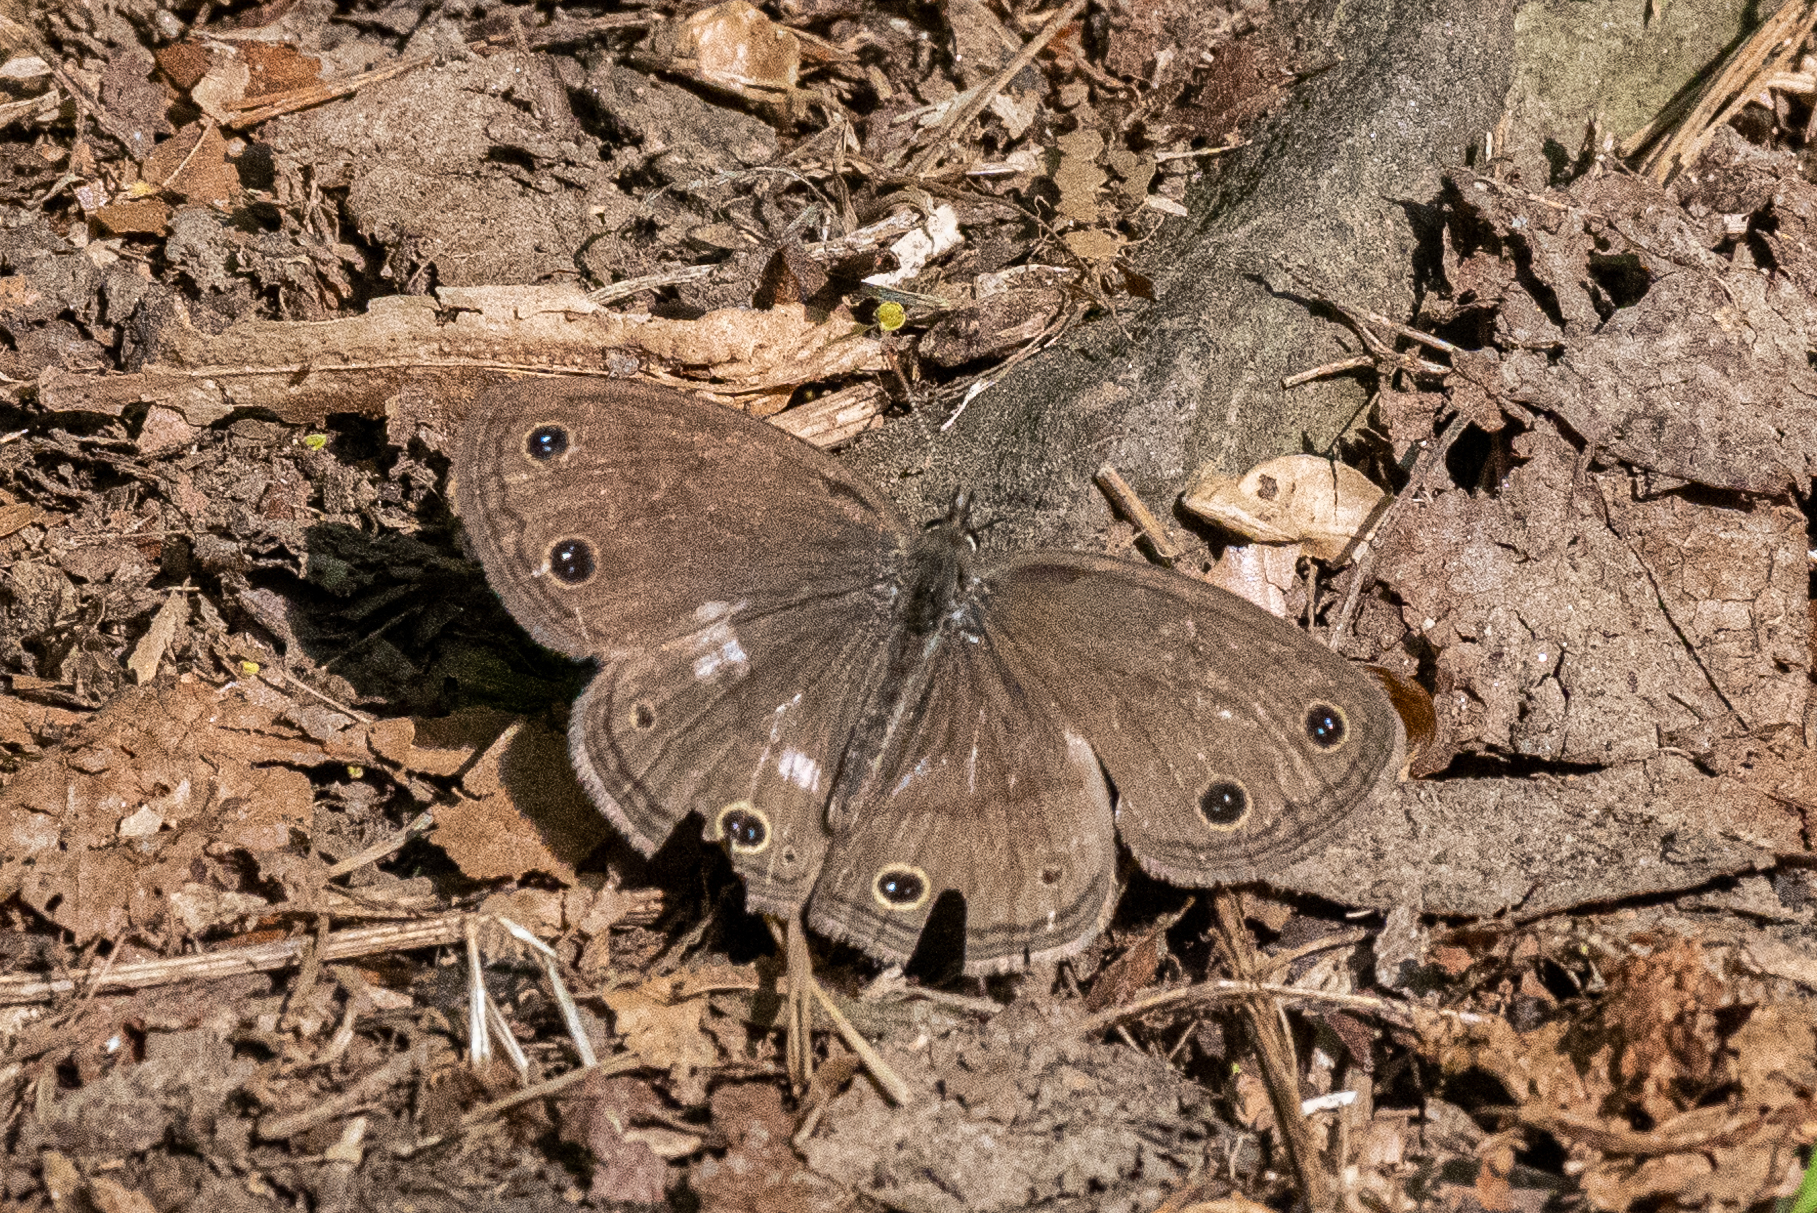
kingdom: Animalia
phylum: Arthropoda
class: Insecta
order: Lepidoptera
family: Nymphalidae
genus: Euptychia
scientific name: Euptychia cymela
